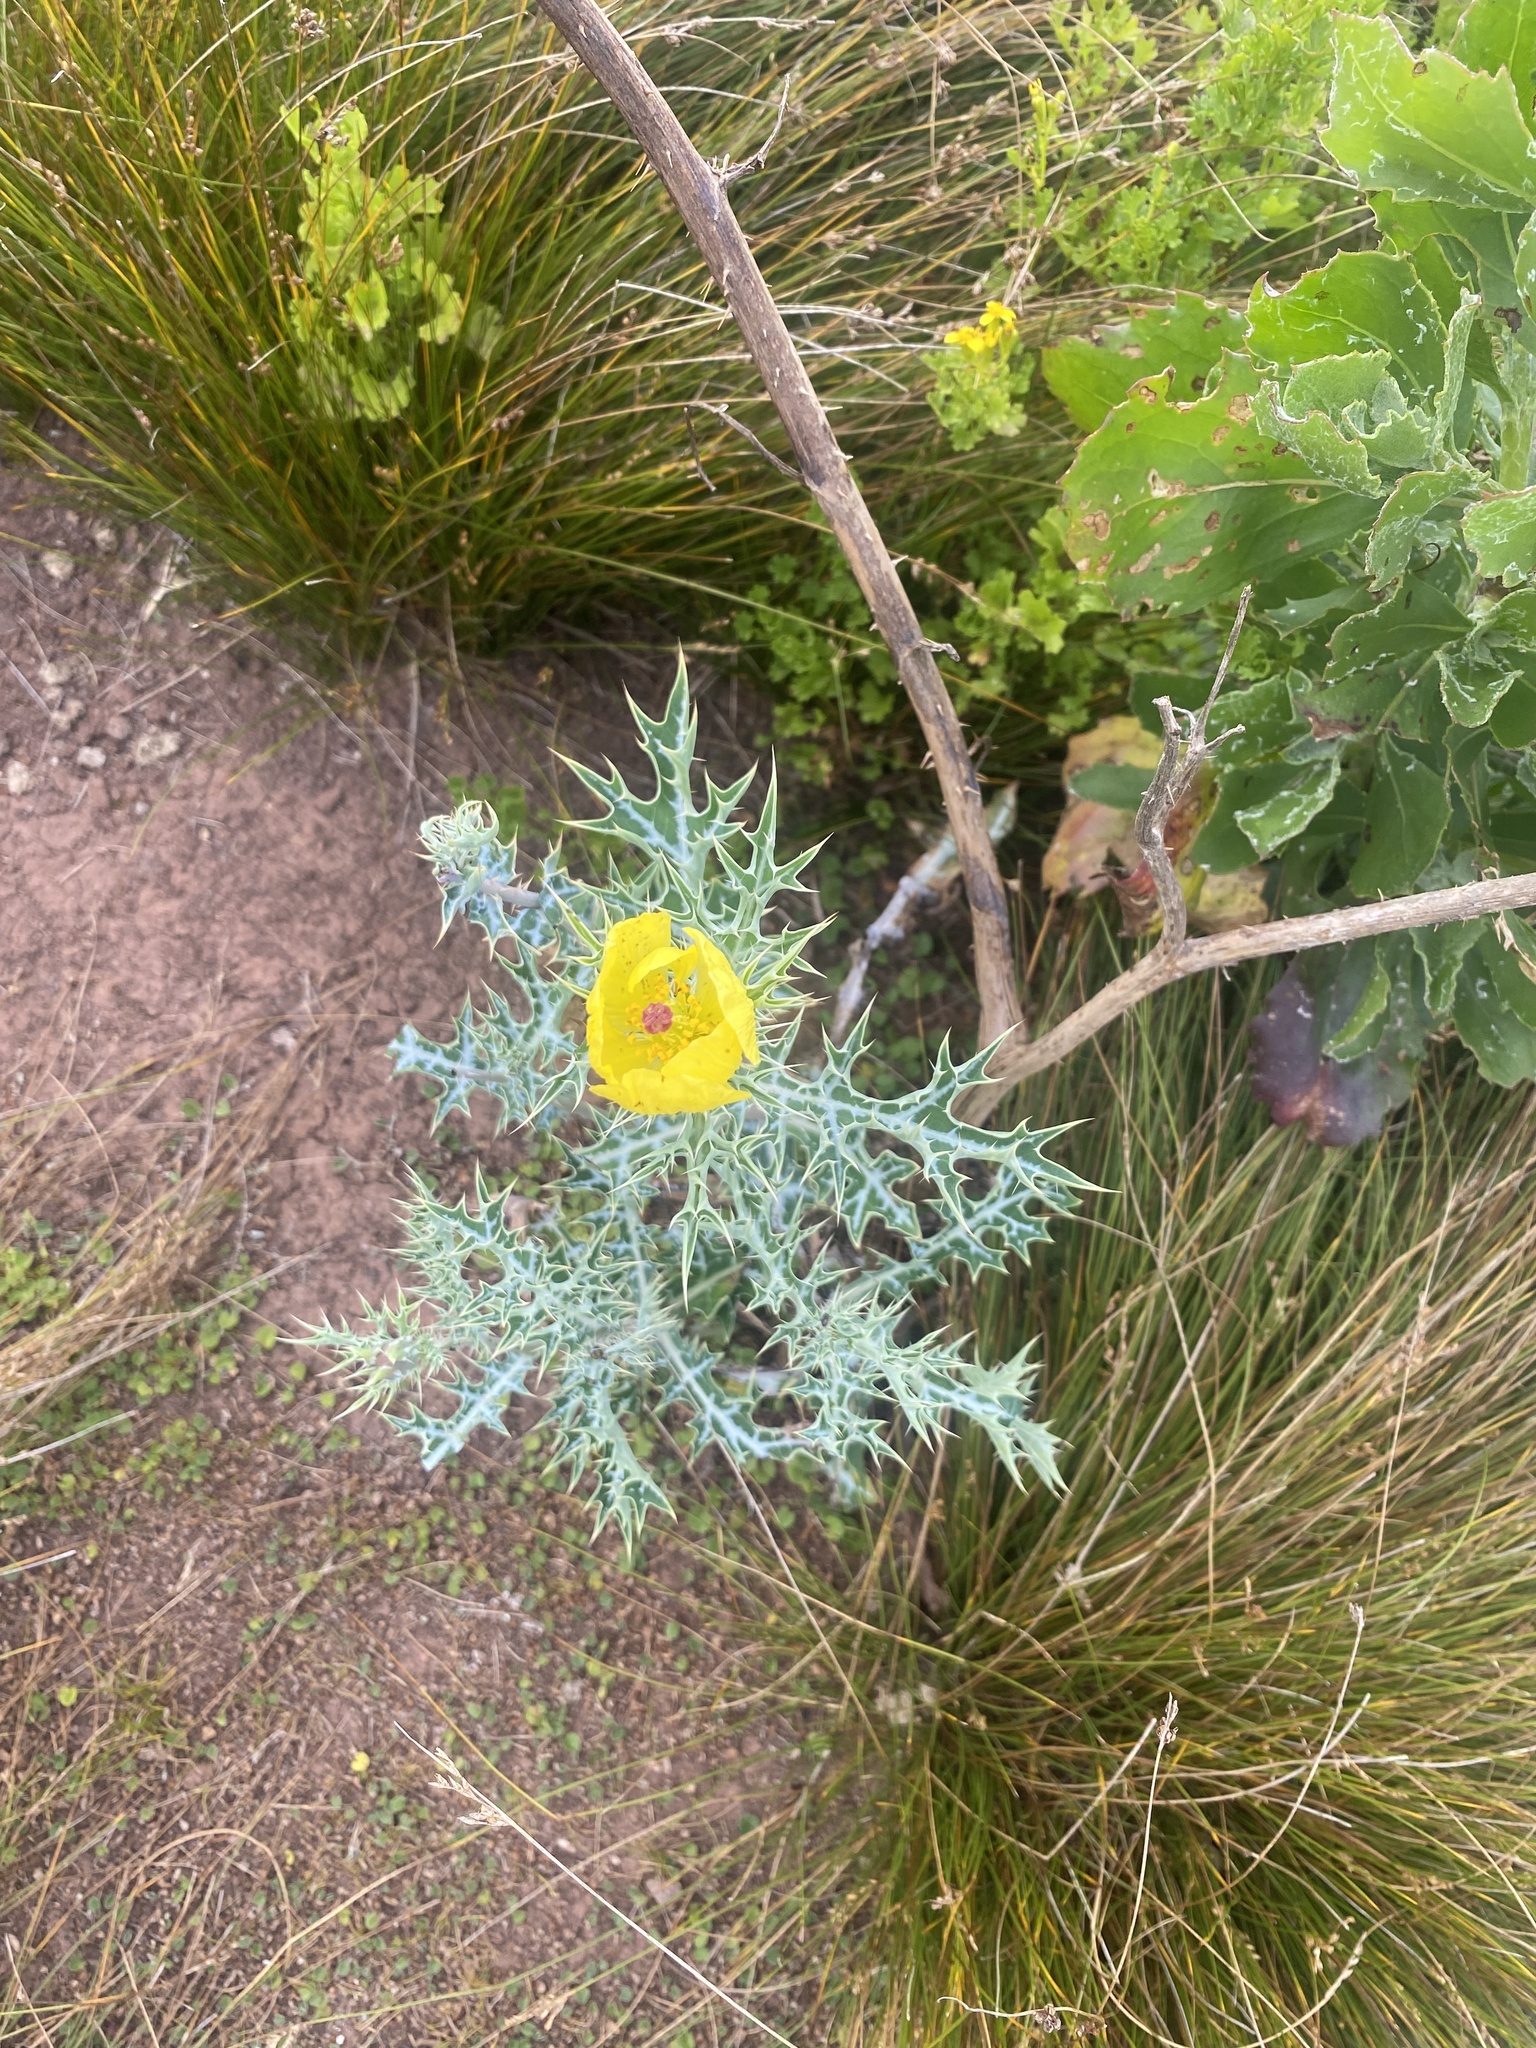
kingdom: Plantae
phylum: Tracheophyta
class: Magnoliopsida
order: Ranunculales
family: Papaveraceae
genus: Argemone
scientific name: Argemone mexicana
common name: Mexican poppy
